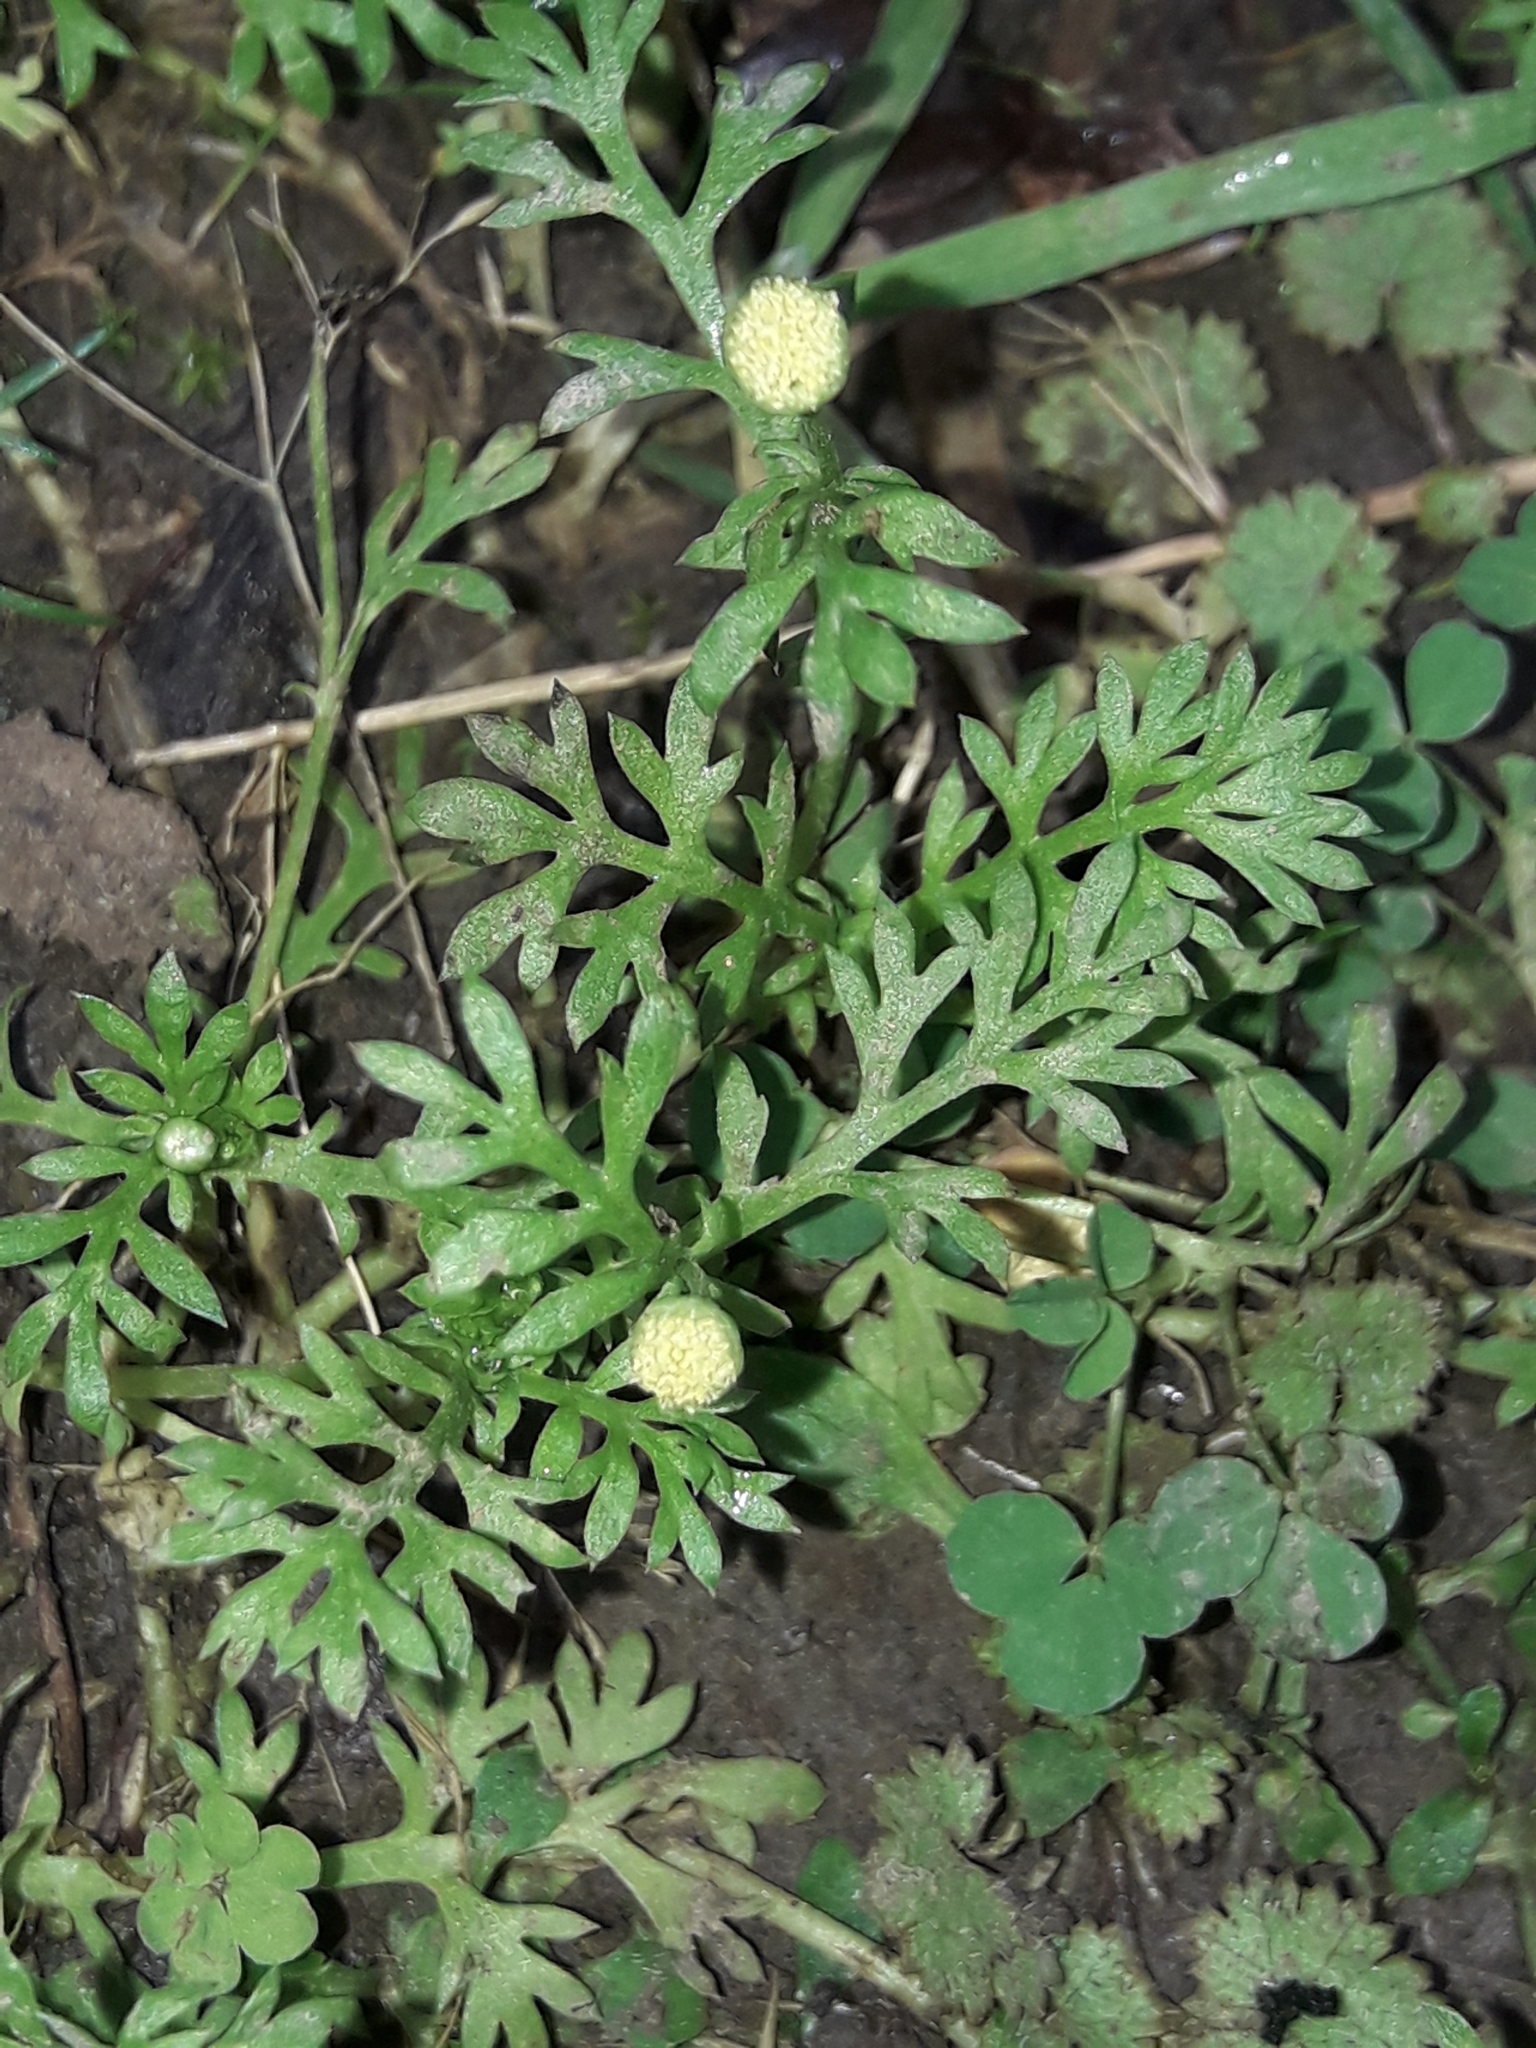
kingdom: Plantae
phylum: Tracheophyta
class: Magnoliopsida
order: Asterales
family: Asteraceae
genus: Cotula
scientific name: Cotula australis
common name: Australian waterbuttons
